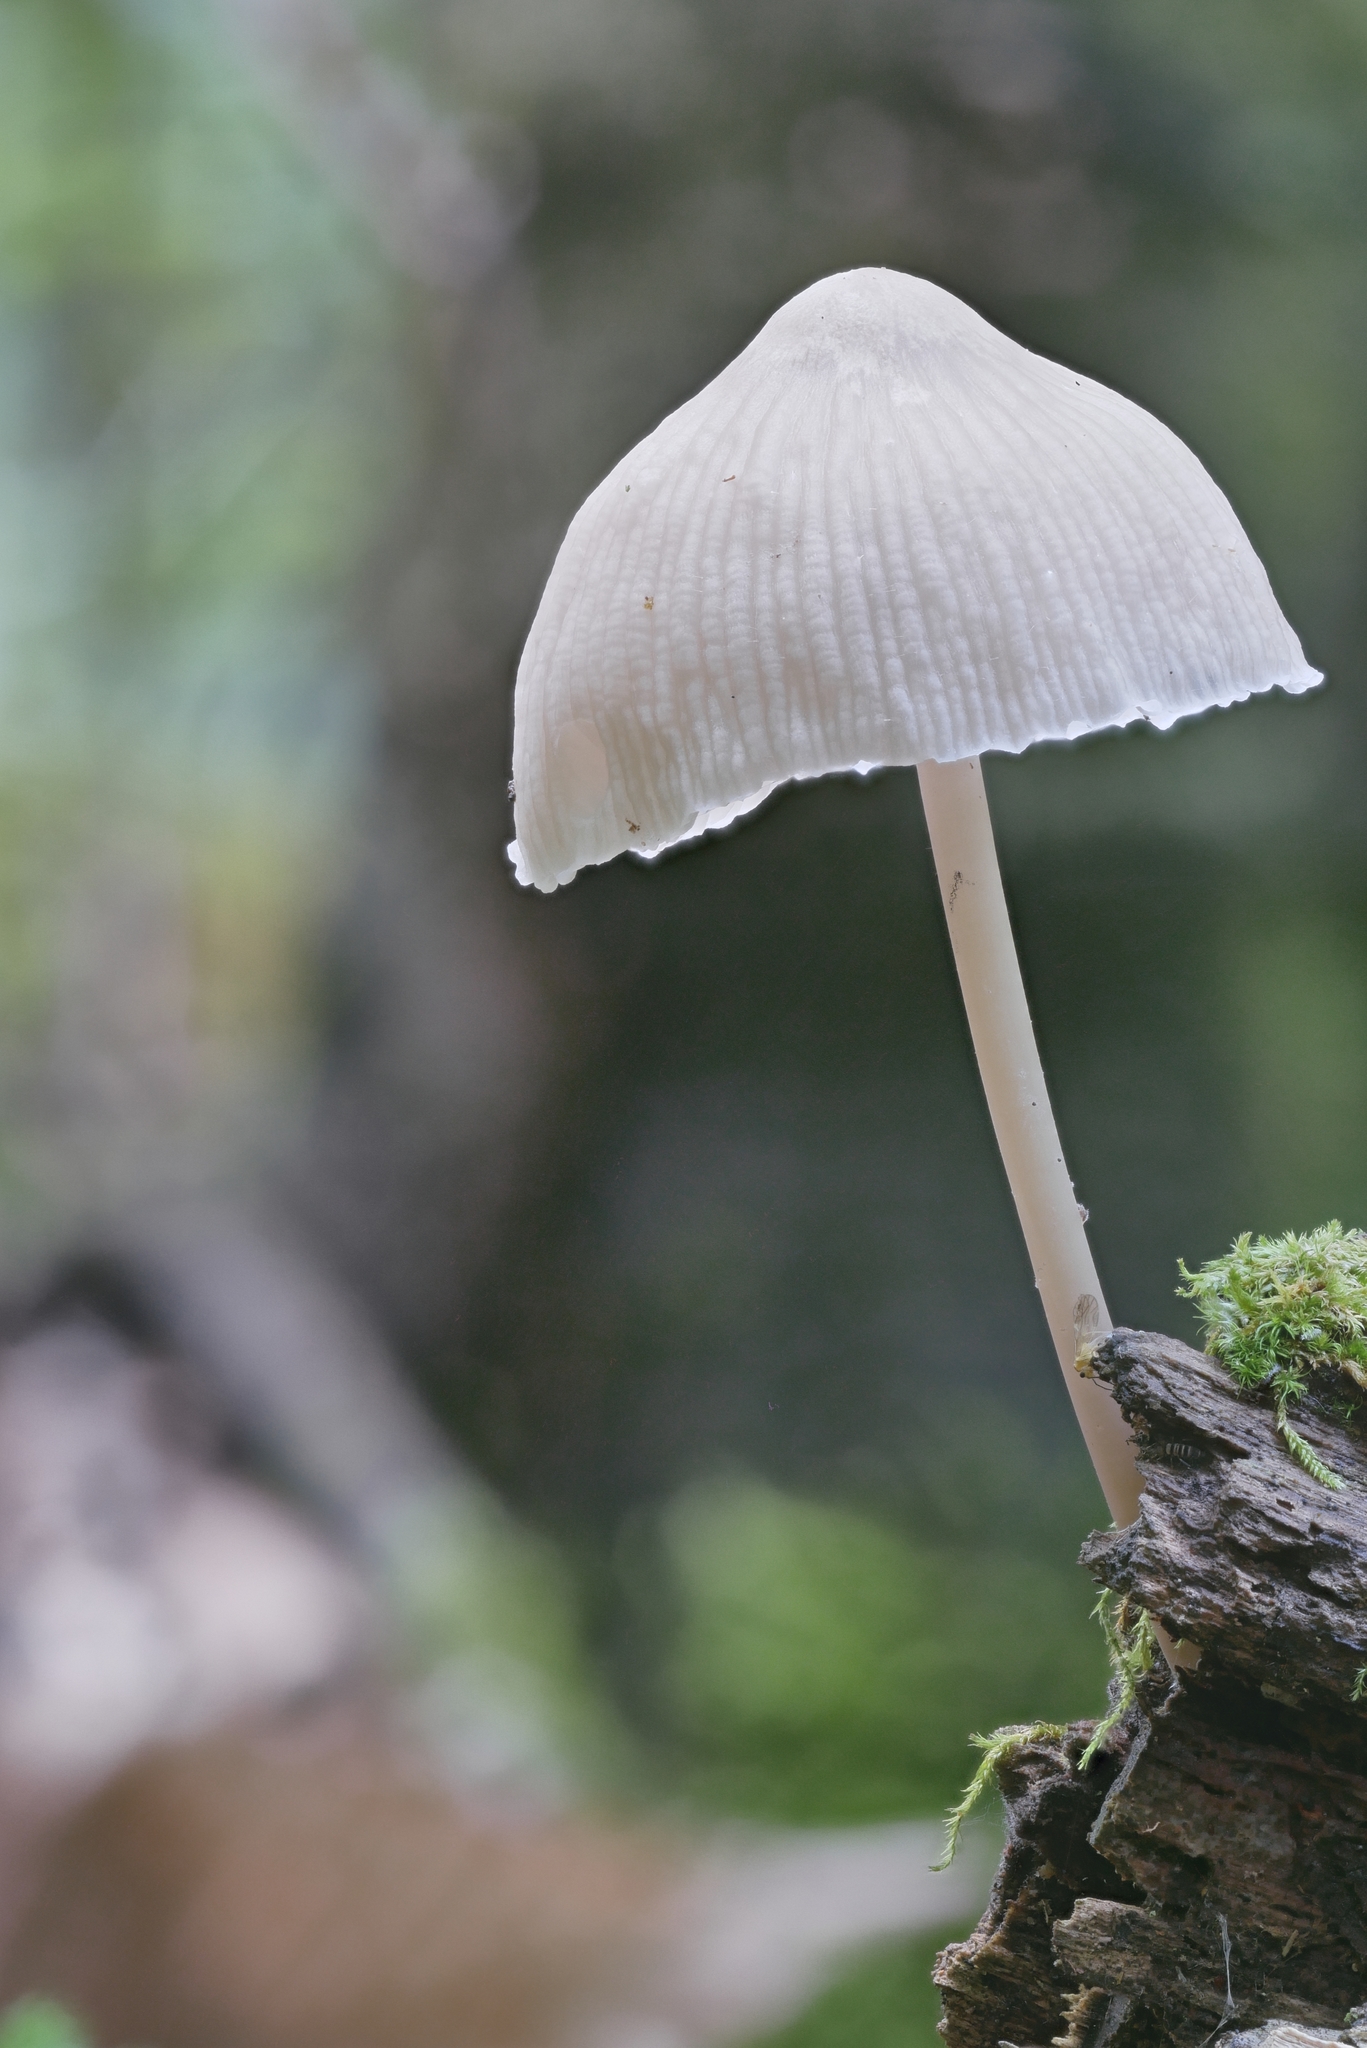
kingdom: Fungi
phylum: Basidiomycota
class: Agaricomycetes
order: Agaricales
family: Mycenaceae
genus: Mycena
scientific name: Mycena galericulata
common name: Bonnet mycena
